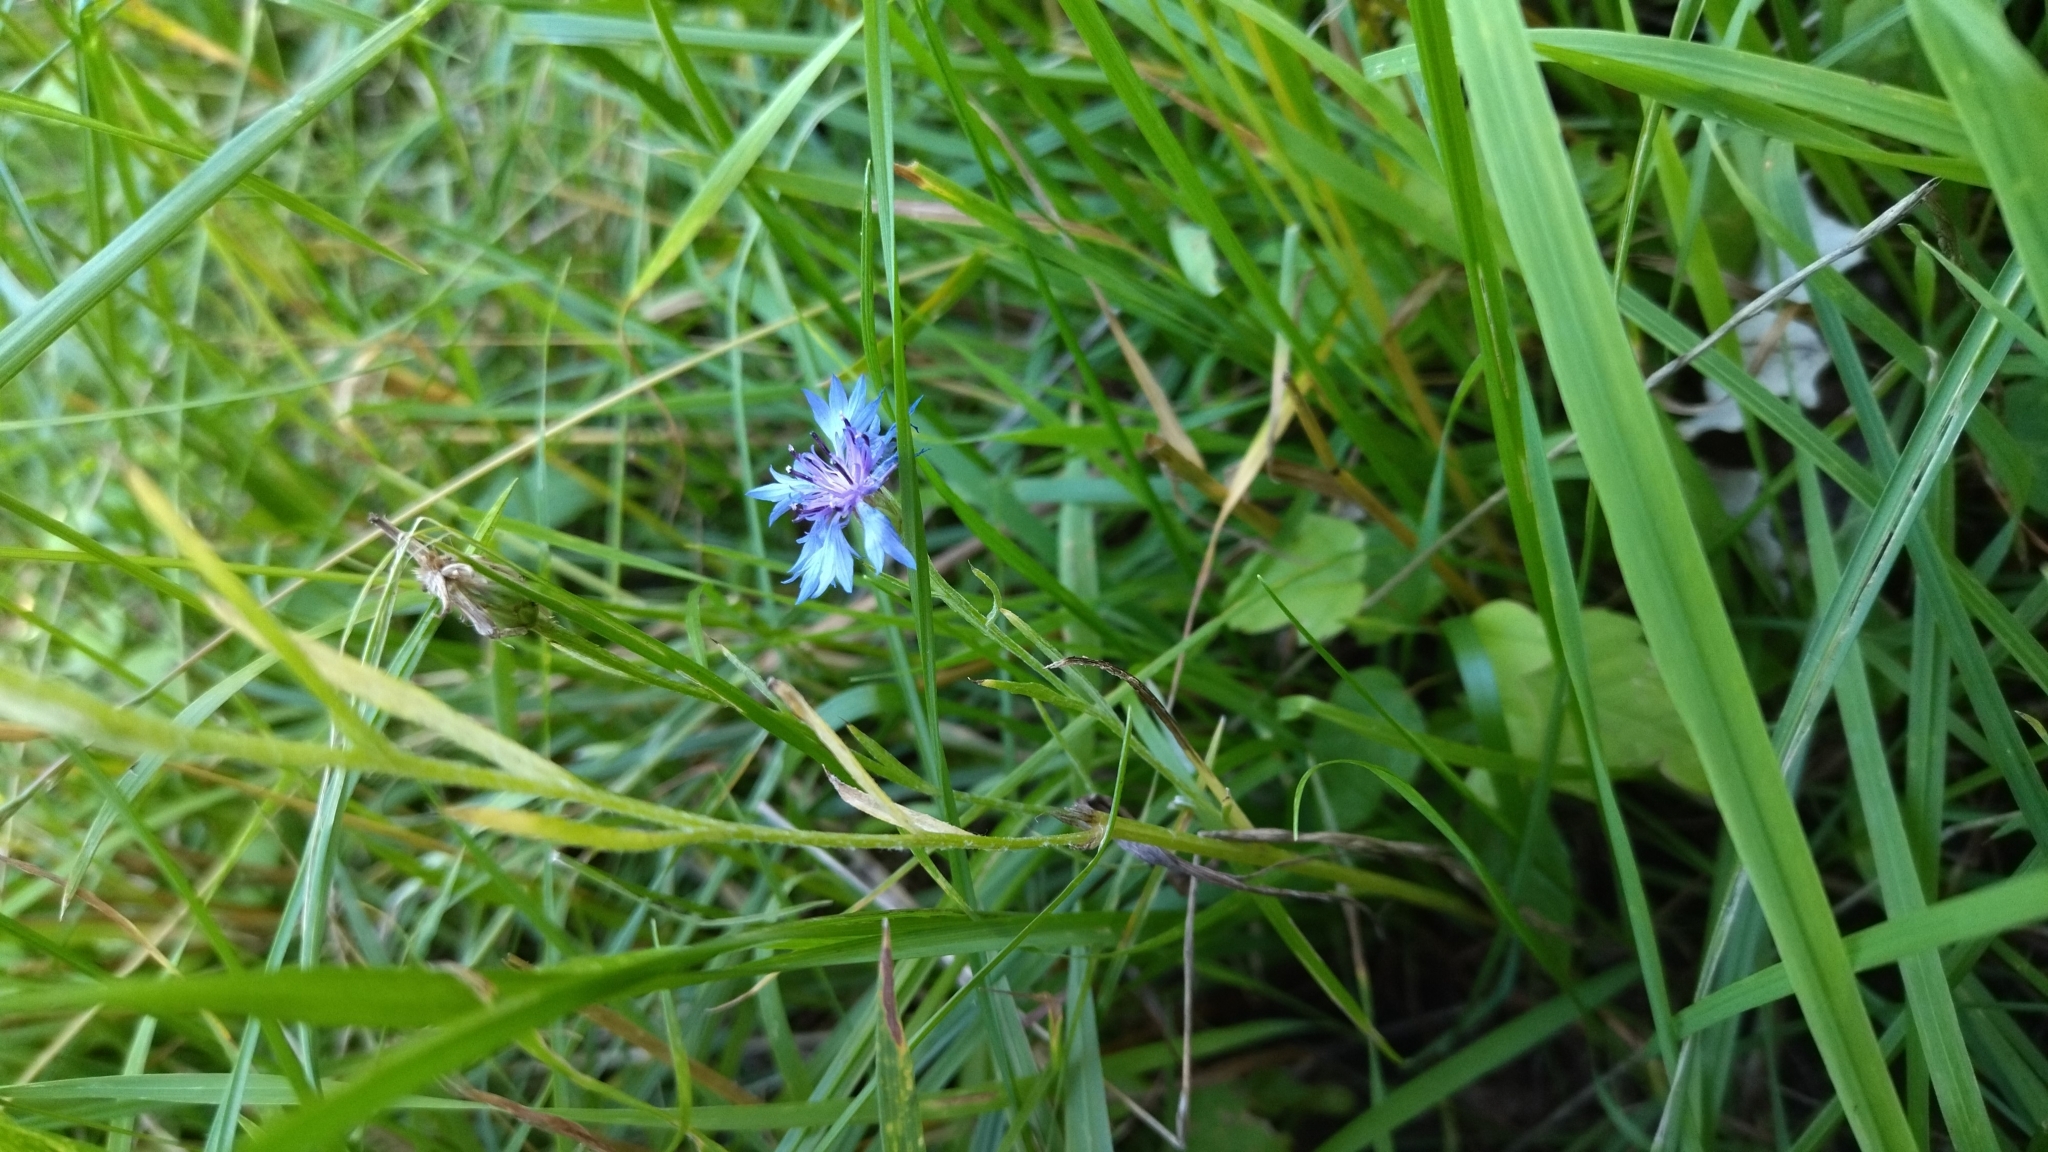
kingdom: Plantae
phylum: Tracheophyta
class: Magnoliopsida
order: Asterales
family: Asteraceae
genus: Centaurea
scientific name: Centaurea cyanus
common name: Cornflower
